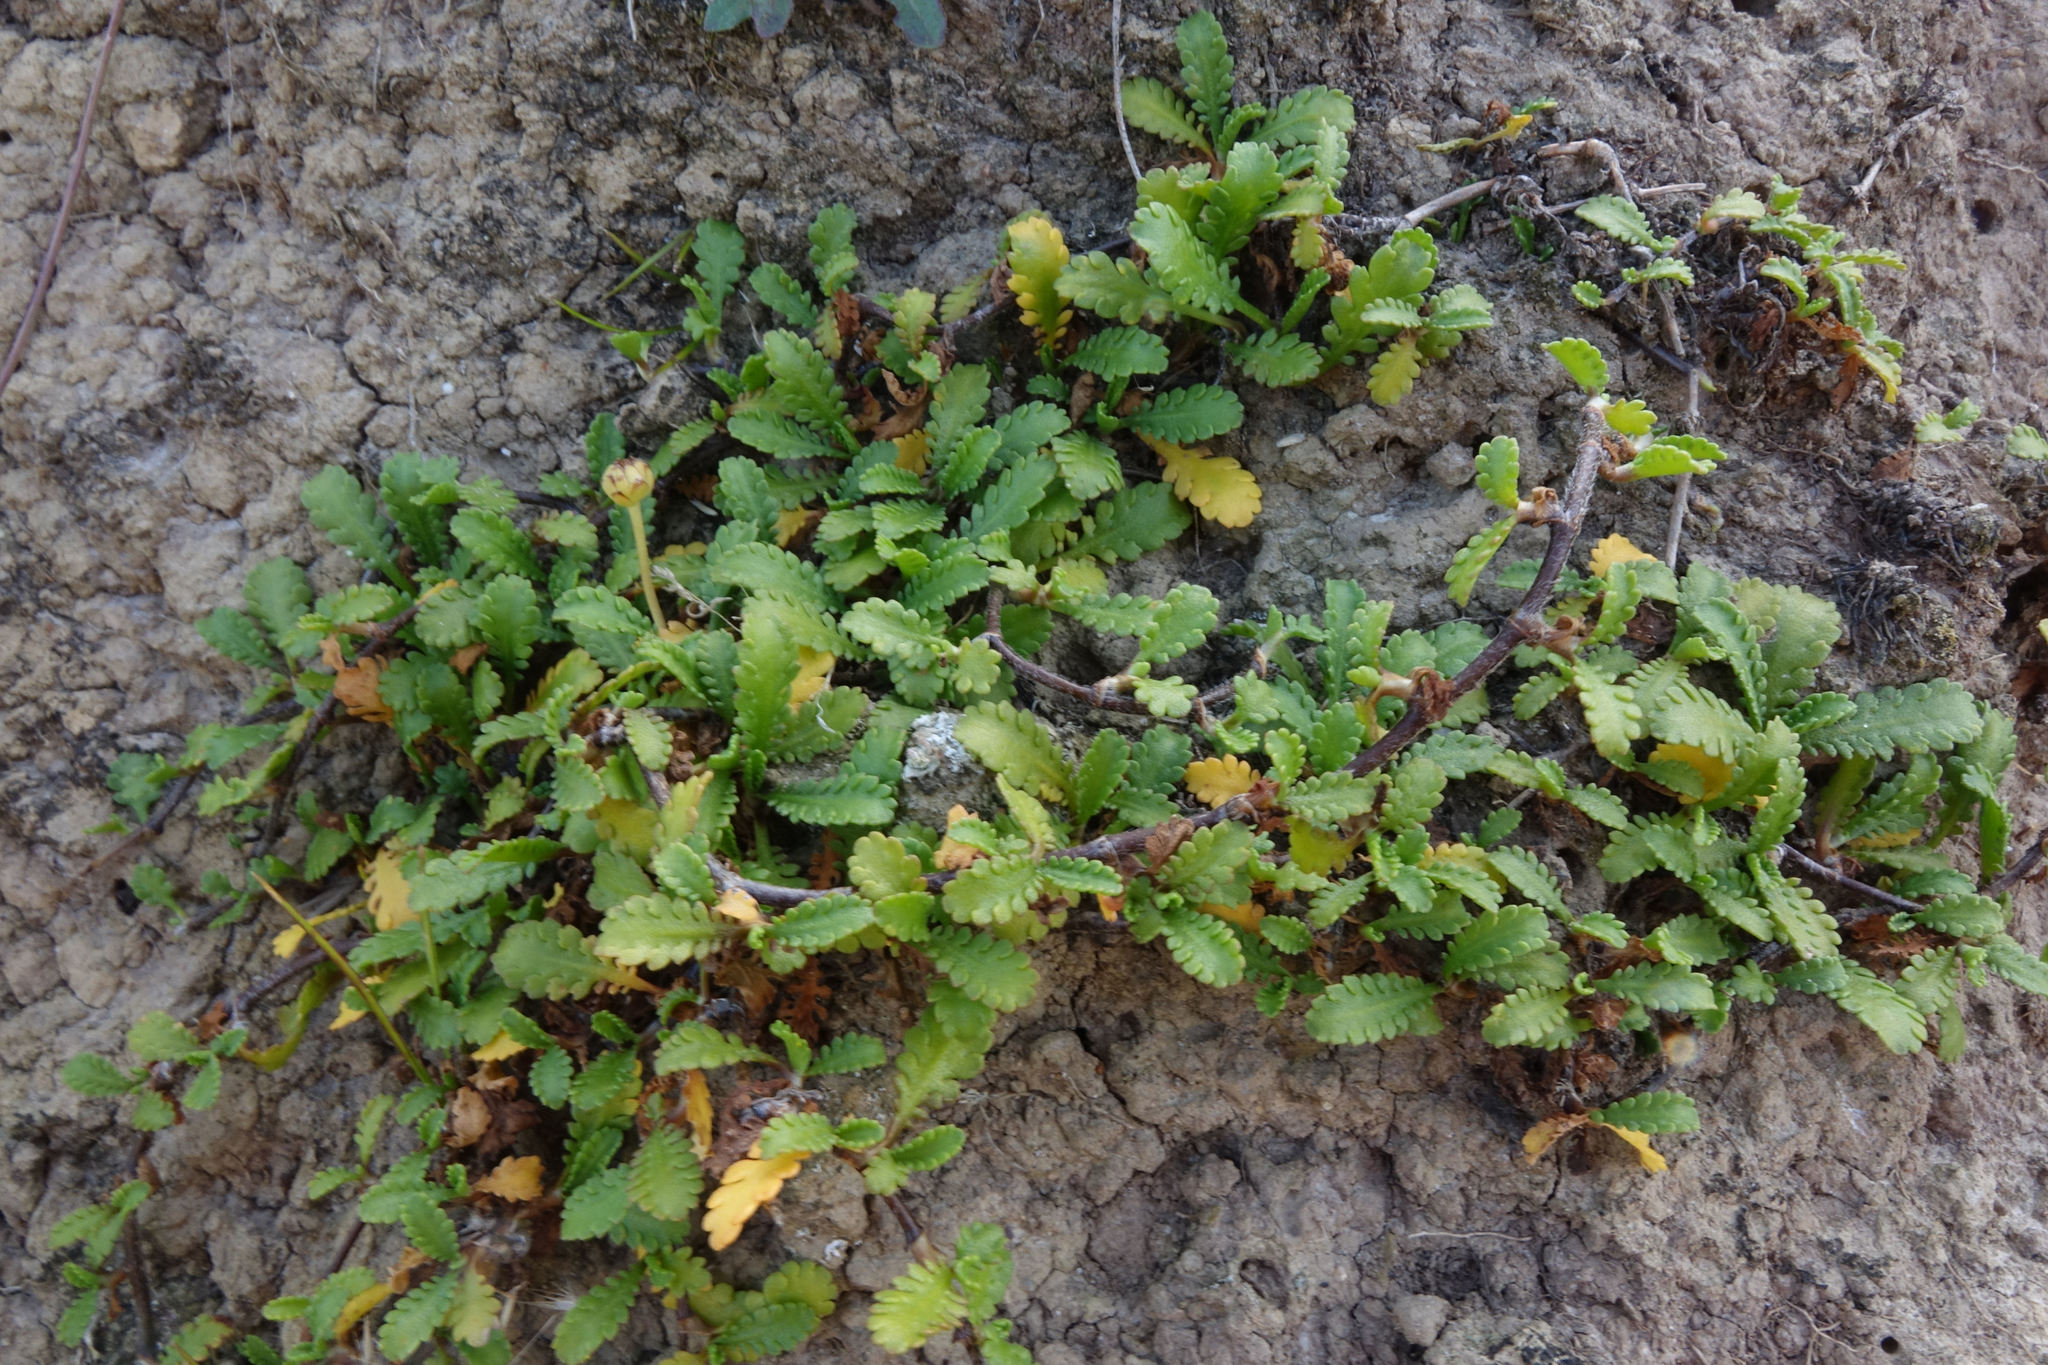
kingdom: Plantae
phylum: Tracheophyta
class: Magnoliopsida
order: Asterales
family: Asteraceae
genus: Leptinella
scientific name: Leptinella dioica
